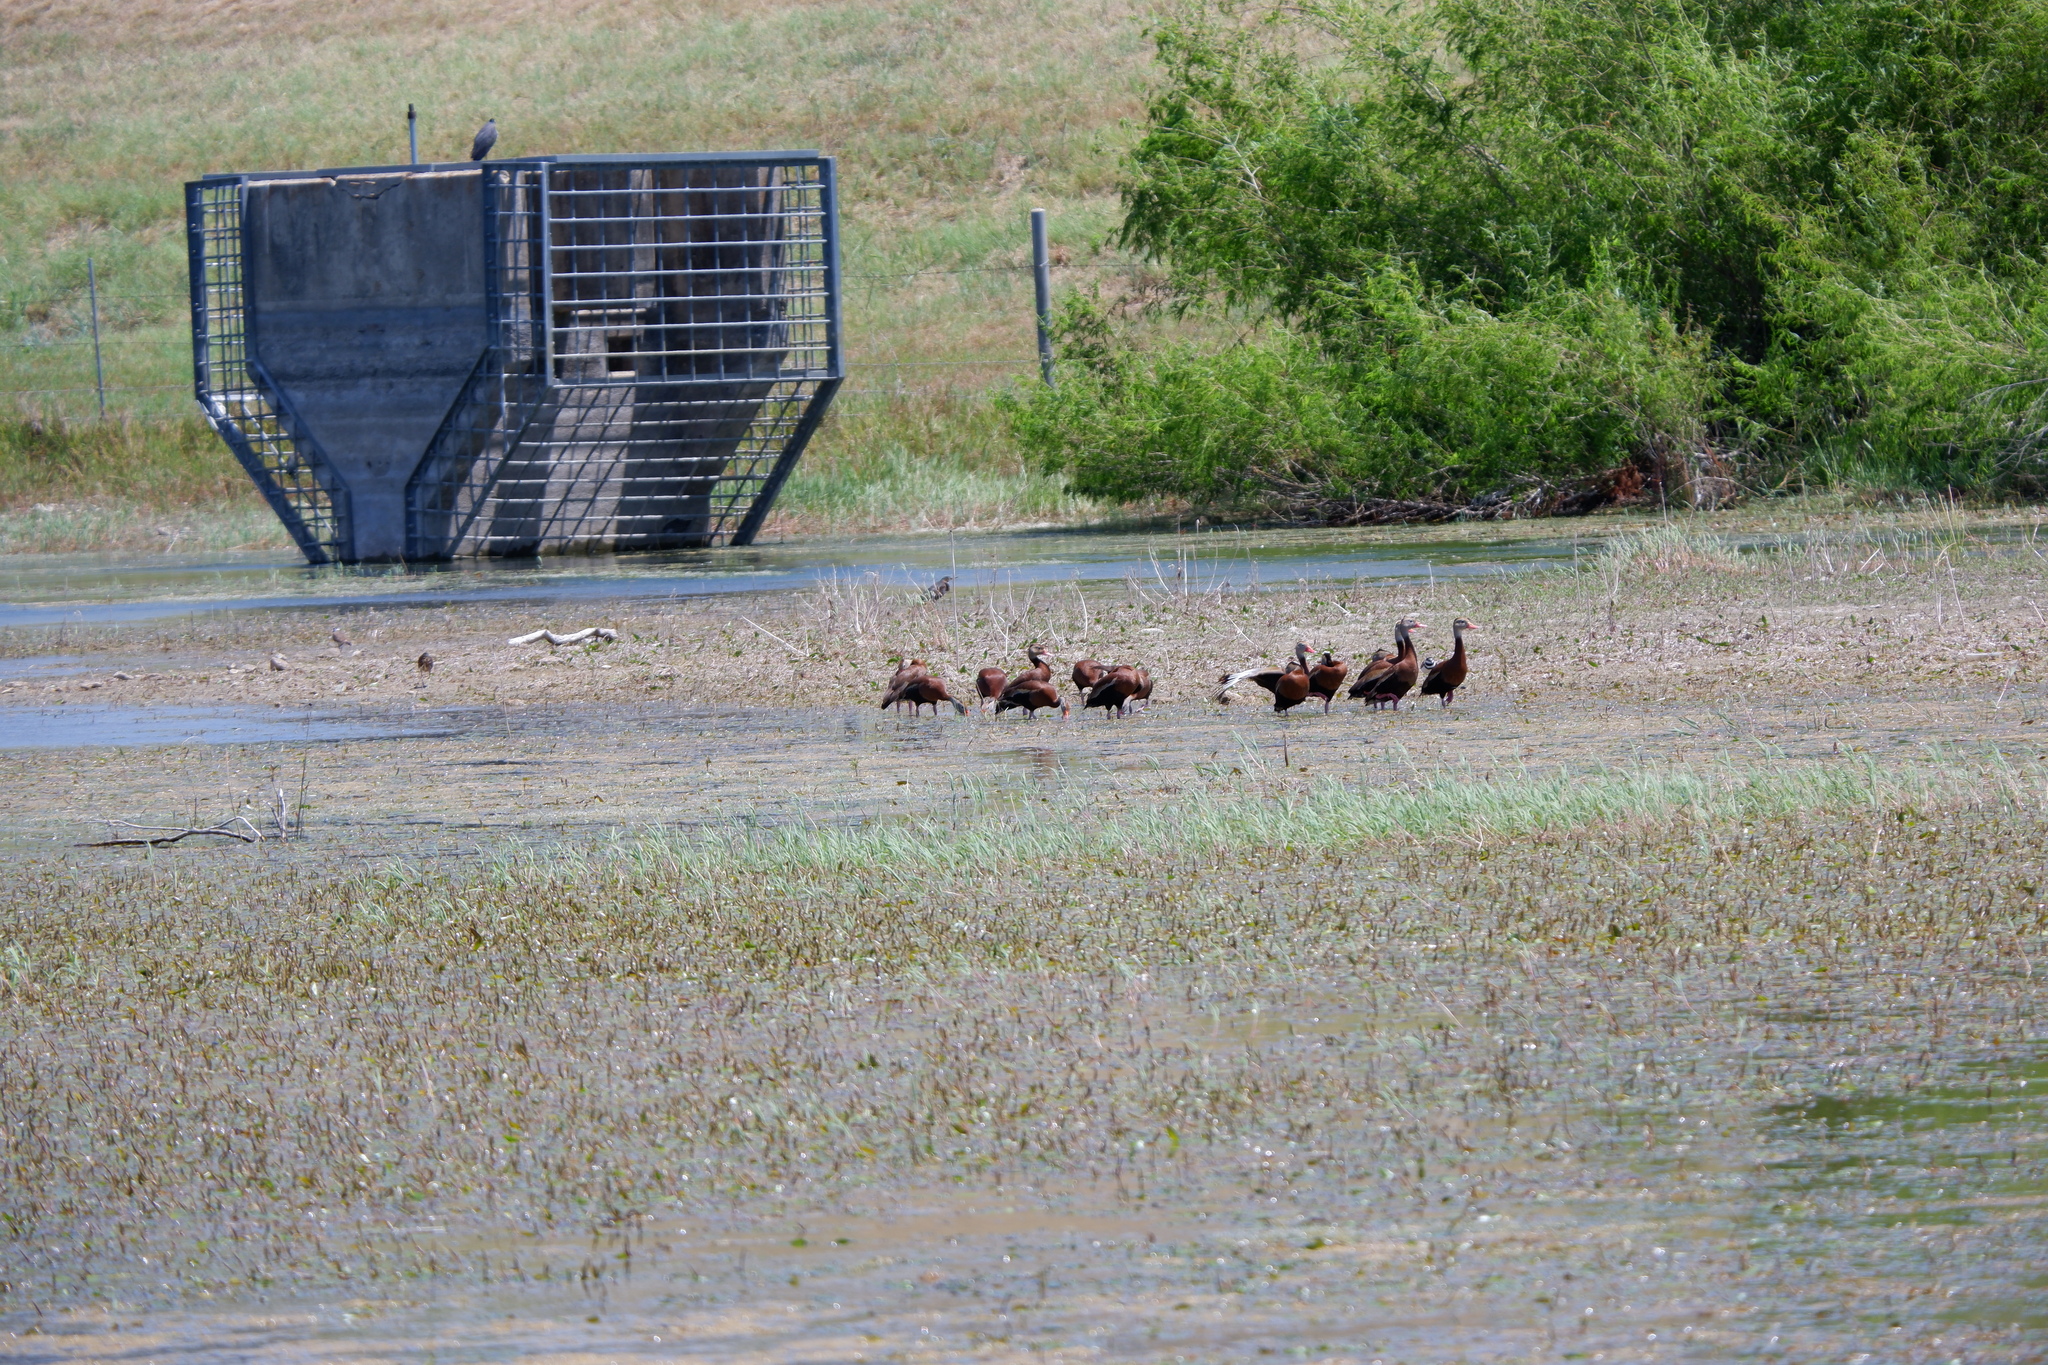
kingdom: Animalia
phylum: Chordata
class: Aves
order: Anseriformes
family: Anatidae
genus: Dendrocygna
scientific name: Dendrocygna autumnalis
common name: Black-bellied whistling duck
